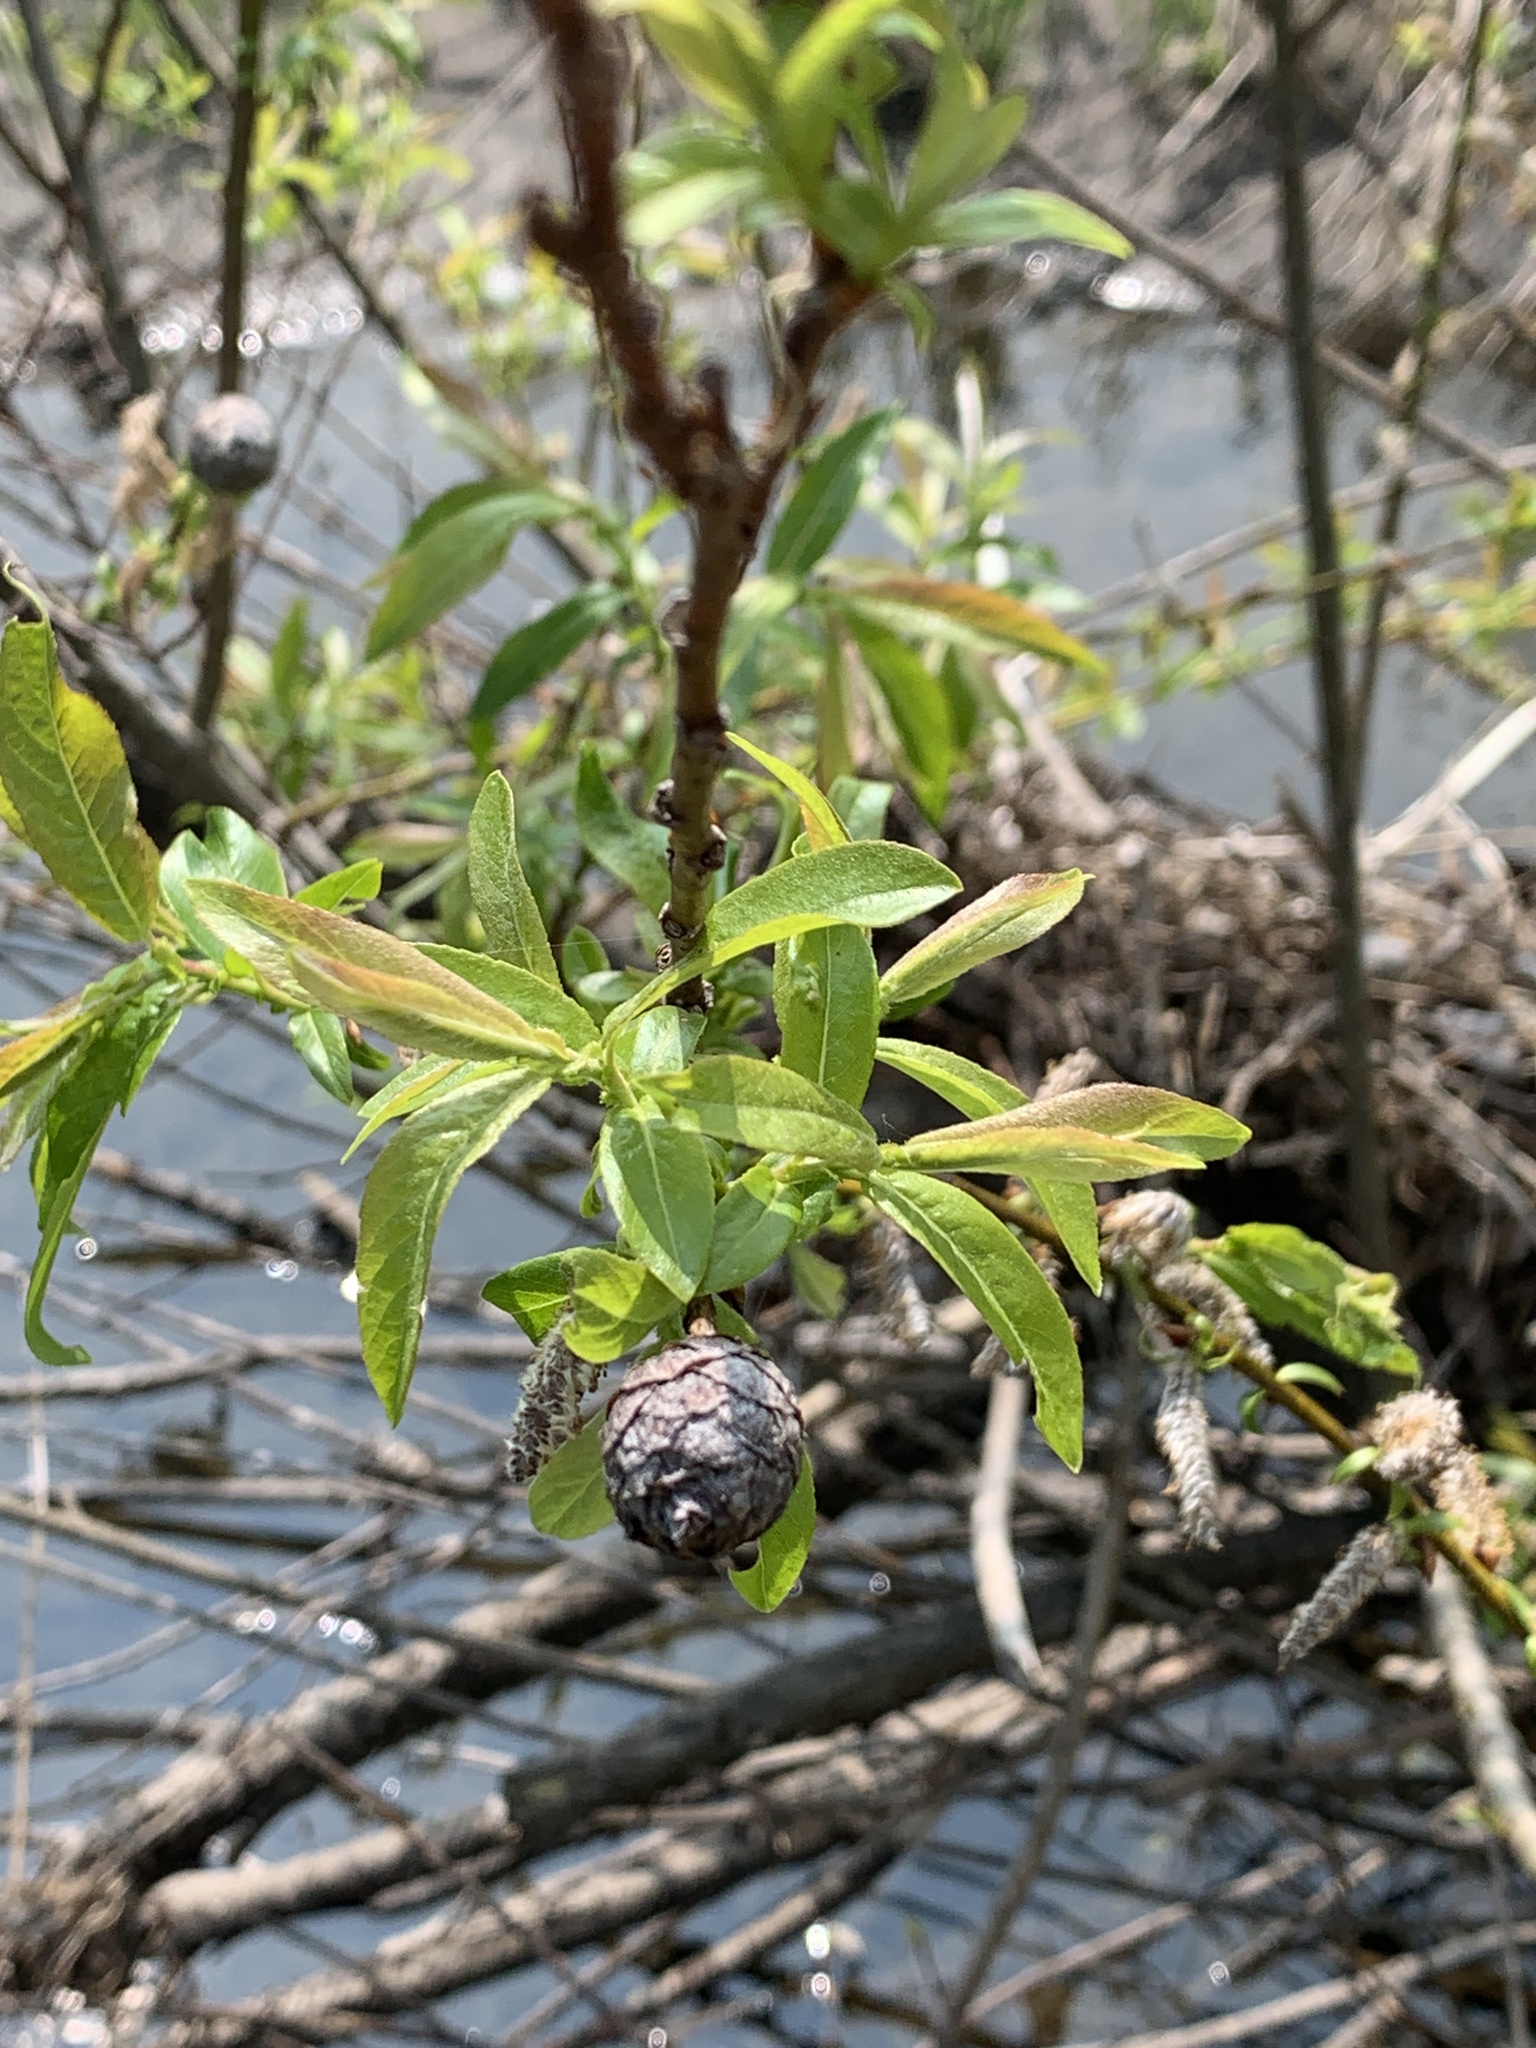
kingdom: Animalia
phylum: Arthropoda
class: Insecta
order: Diptera
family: Cecidomyiidae
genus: Rabdophaga
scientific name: Rabdophaga strobiloides
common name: Willow pinecone gall midge
